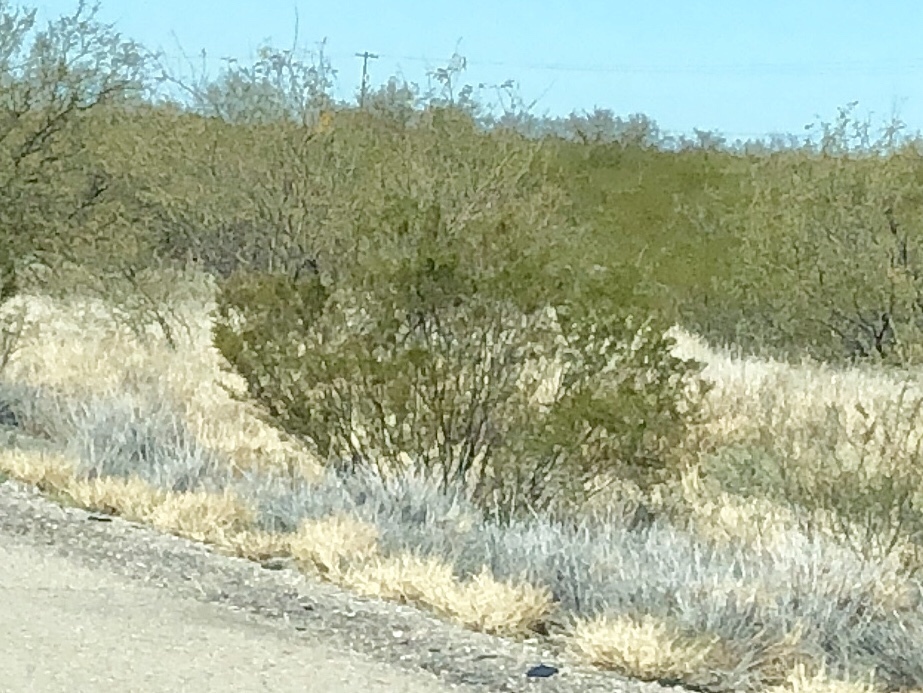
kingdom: Plantae
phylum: Tracheophyta
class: Magnoliopsida
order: Zygophyllales
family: Zygophyllaceae
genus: Larrea
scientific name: Larrea tridentata
